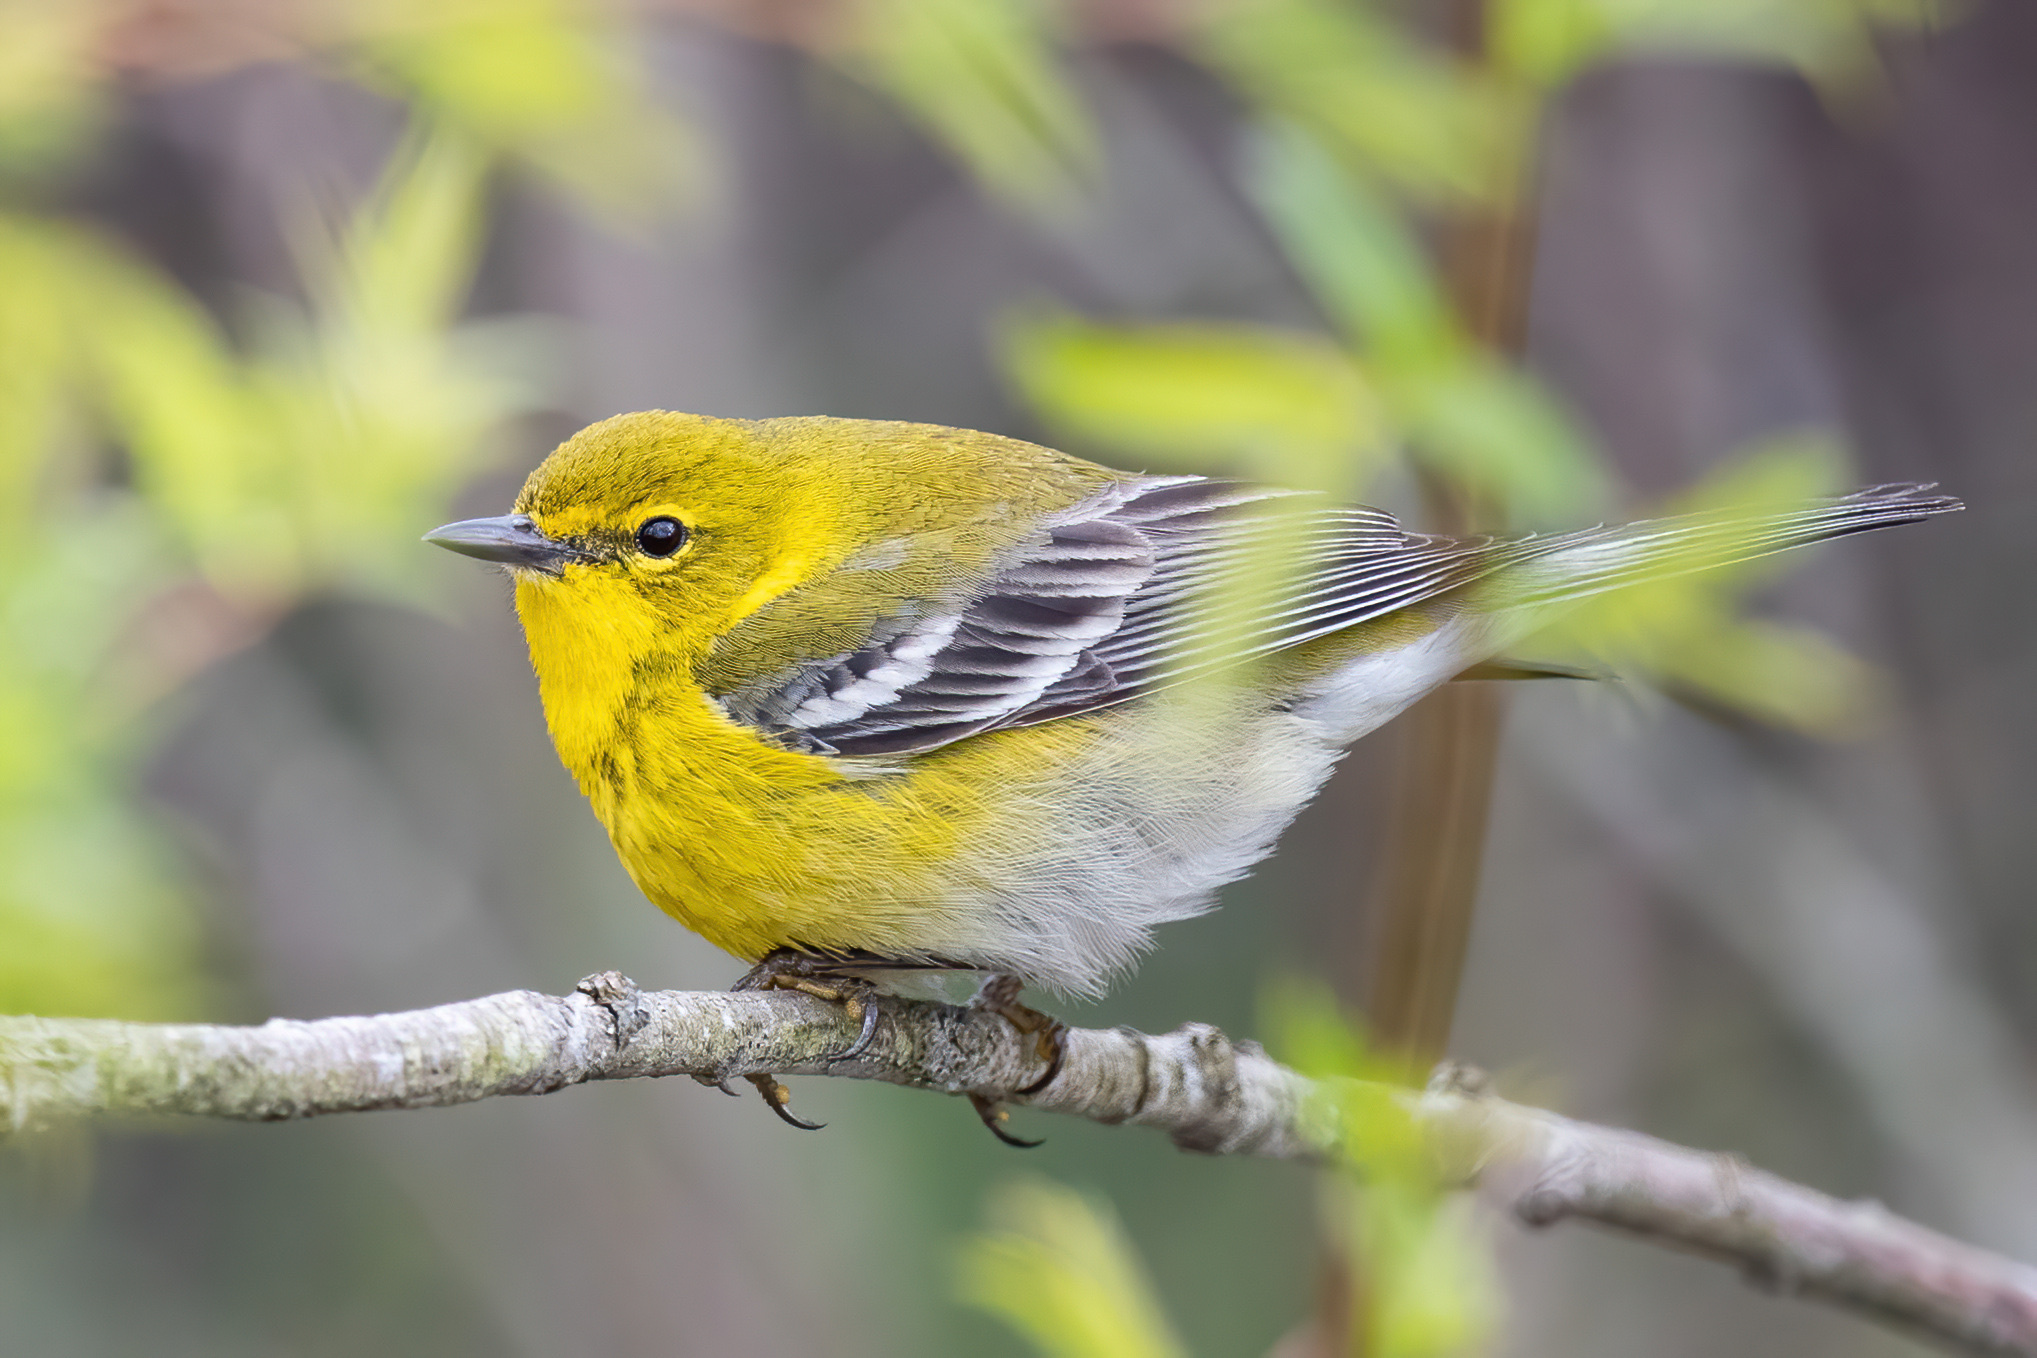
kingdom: Animalia
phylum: Chordata
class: Aves
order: Passeriformes
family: Parulidae
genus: Setophaga
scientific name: Setophaga pinus
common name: Pine warbler
